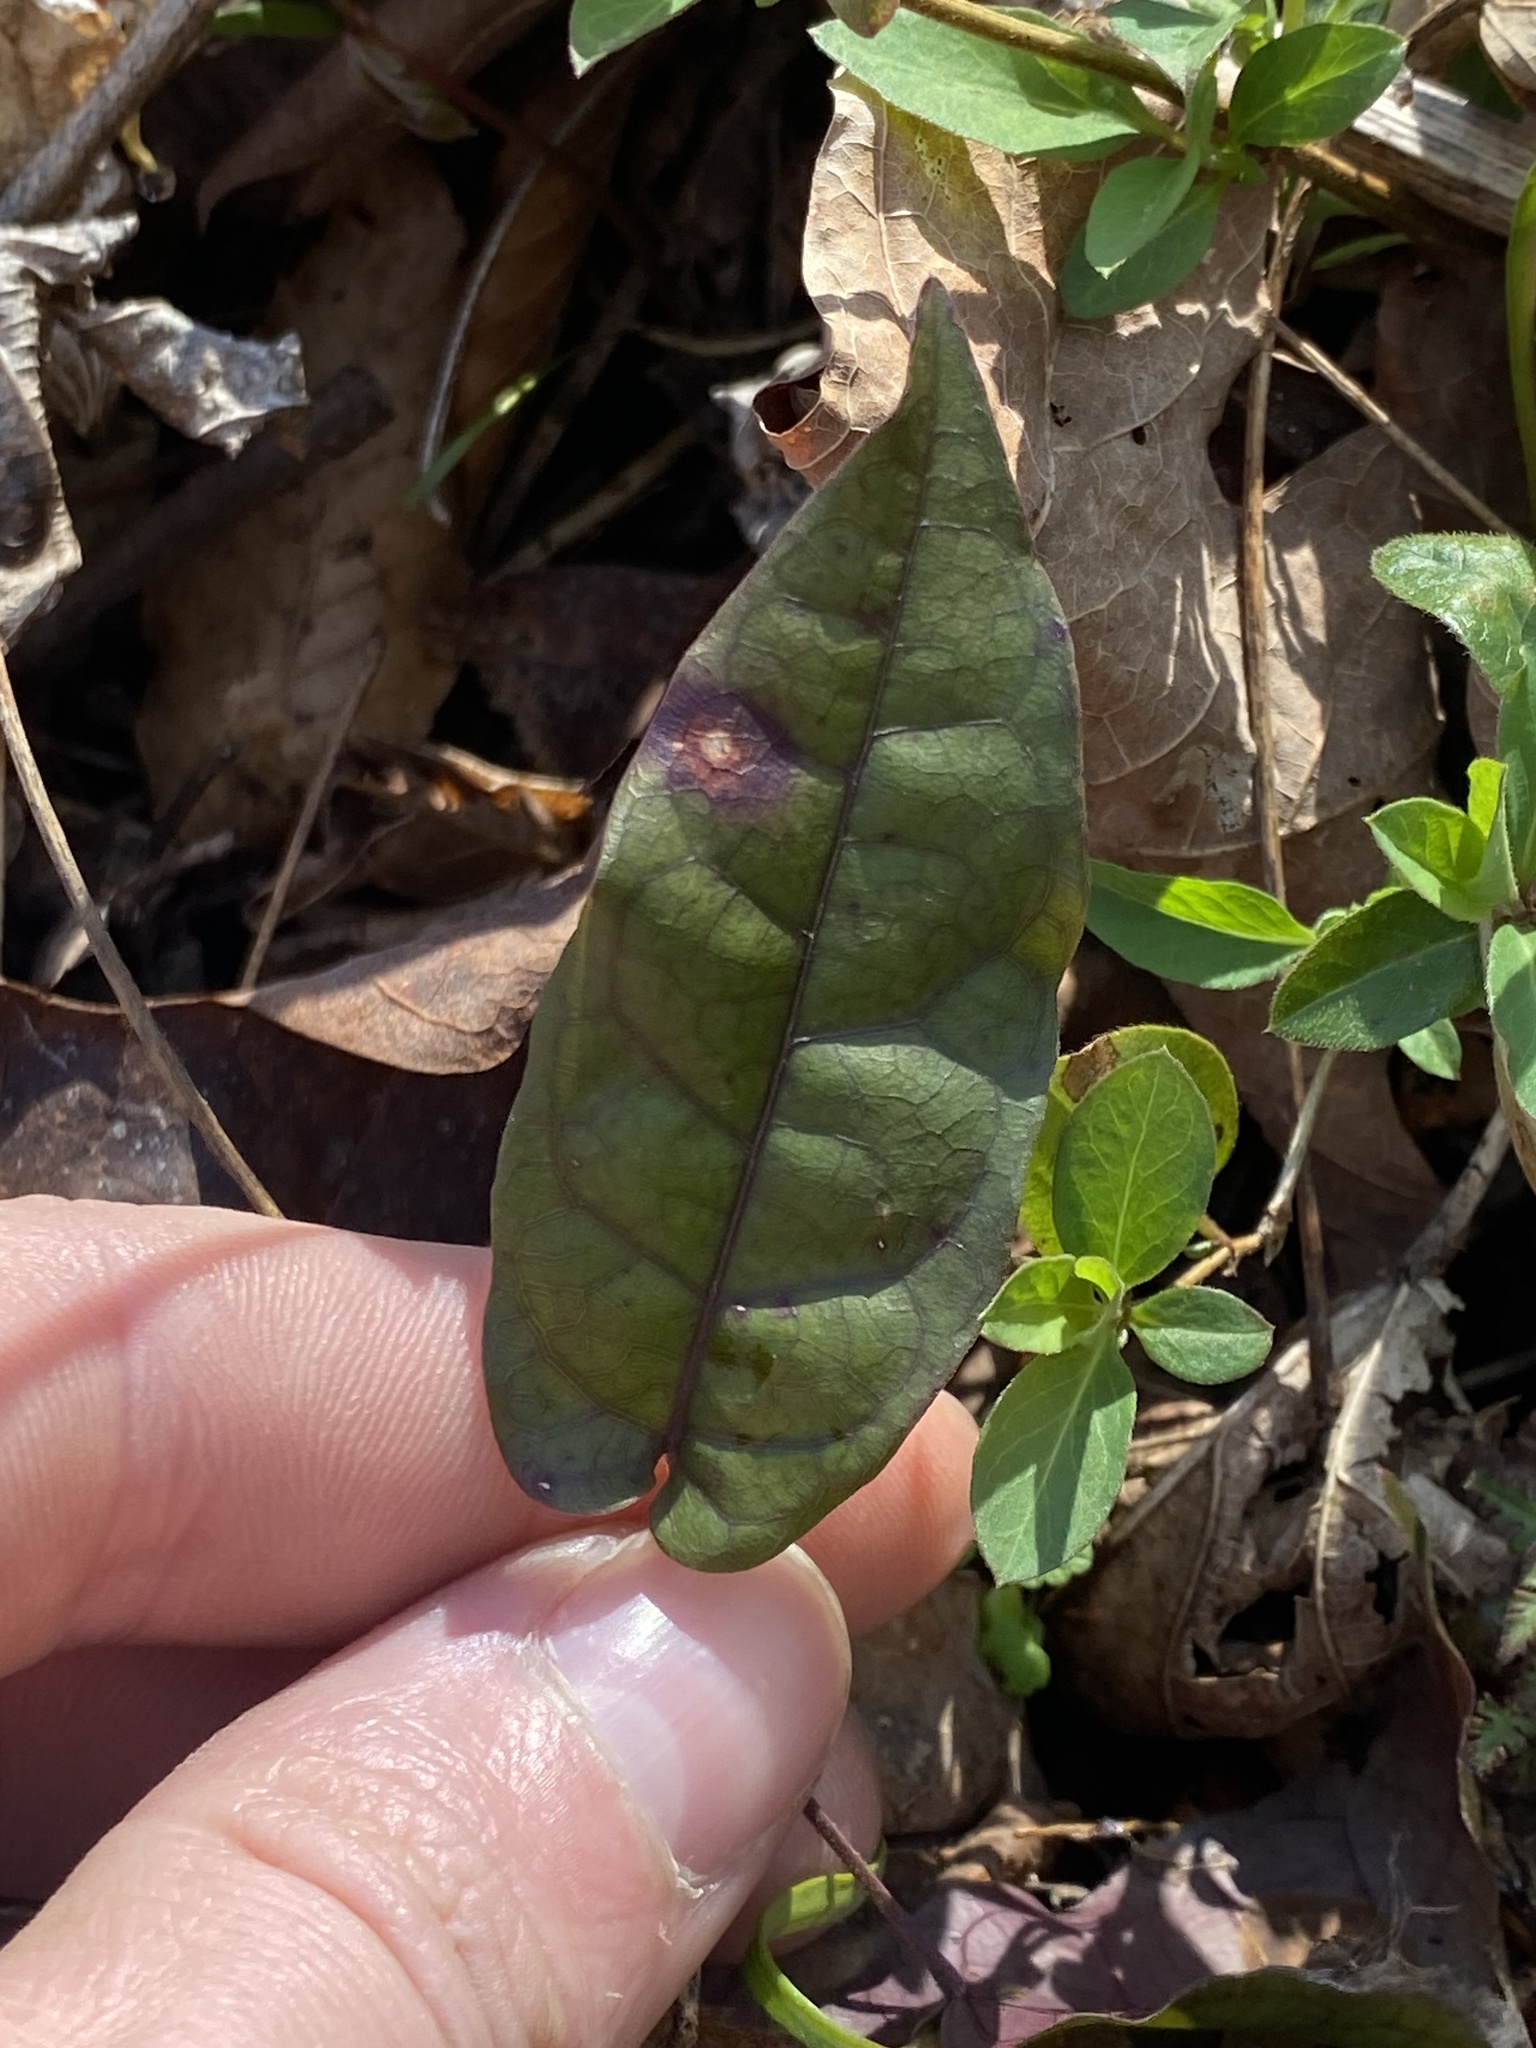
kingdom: Plantae
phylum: Tracheophyta
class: Magnoliopsida
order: Lamiales
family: Bignoniaceae
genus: Bignonia
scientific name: Bignonia capreolata
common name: Crossvine
